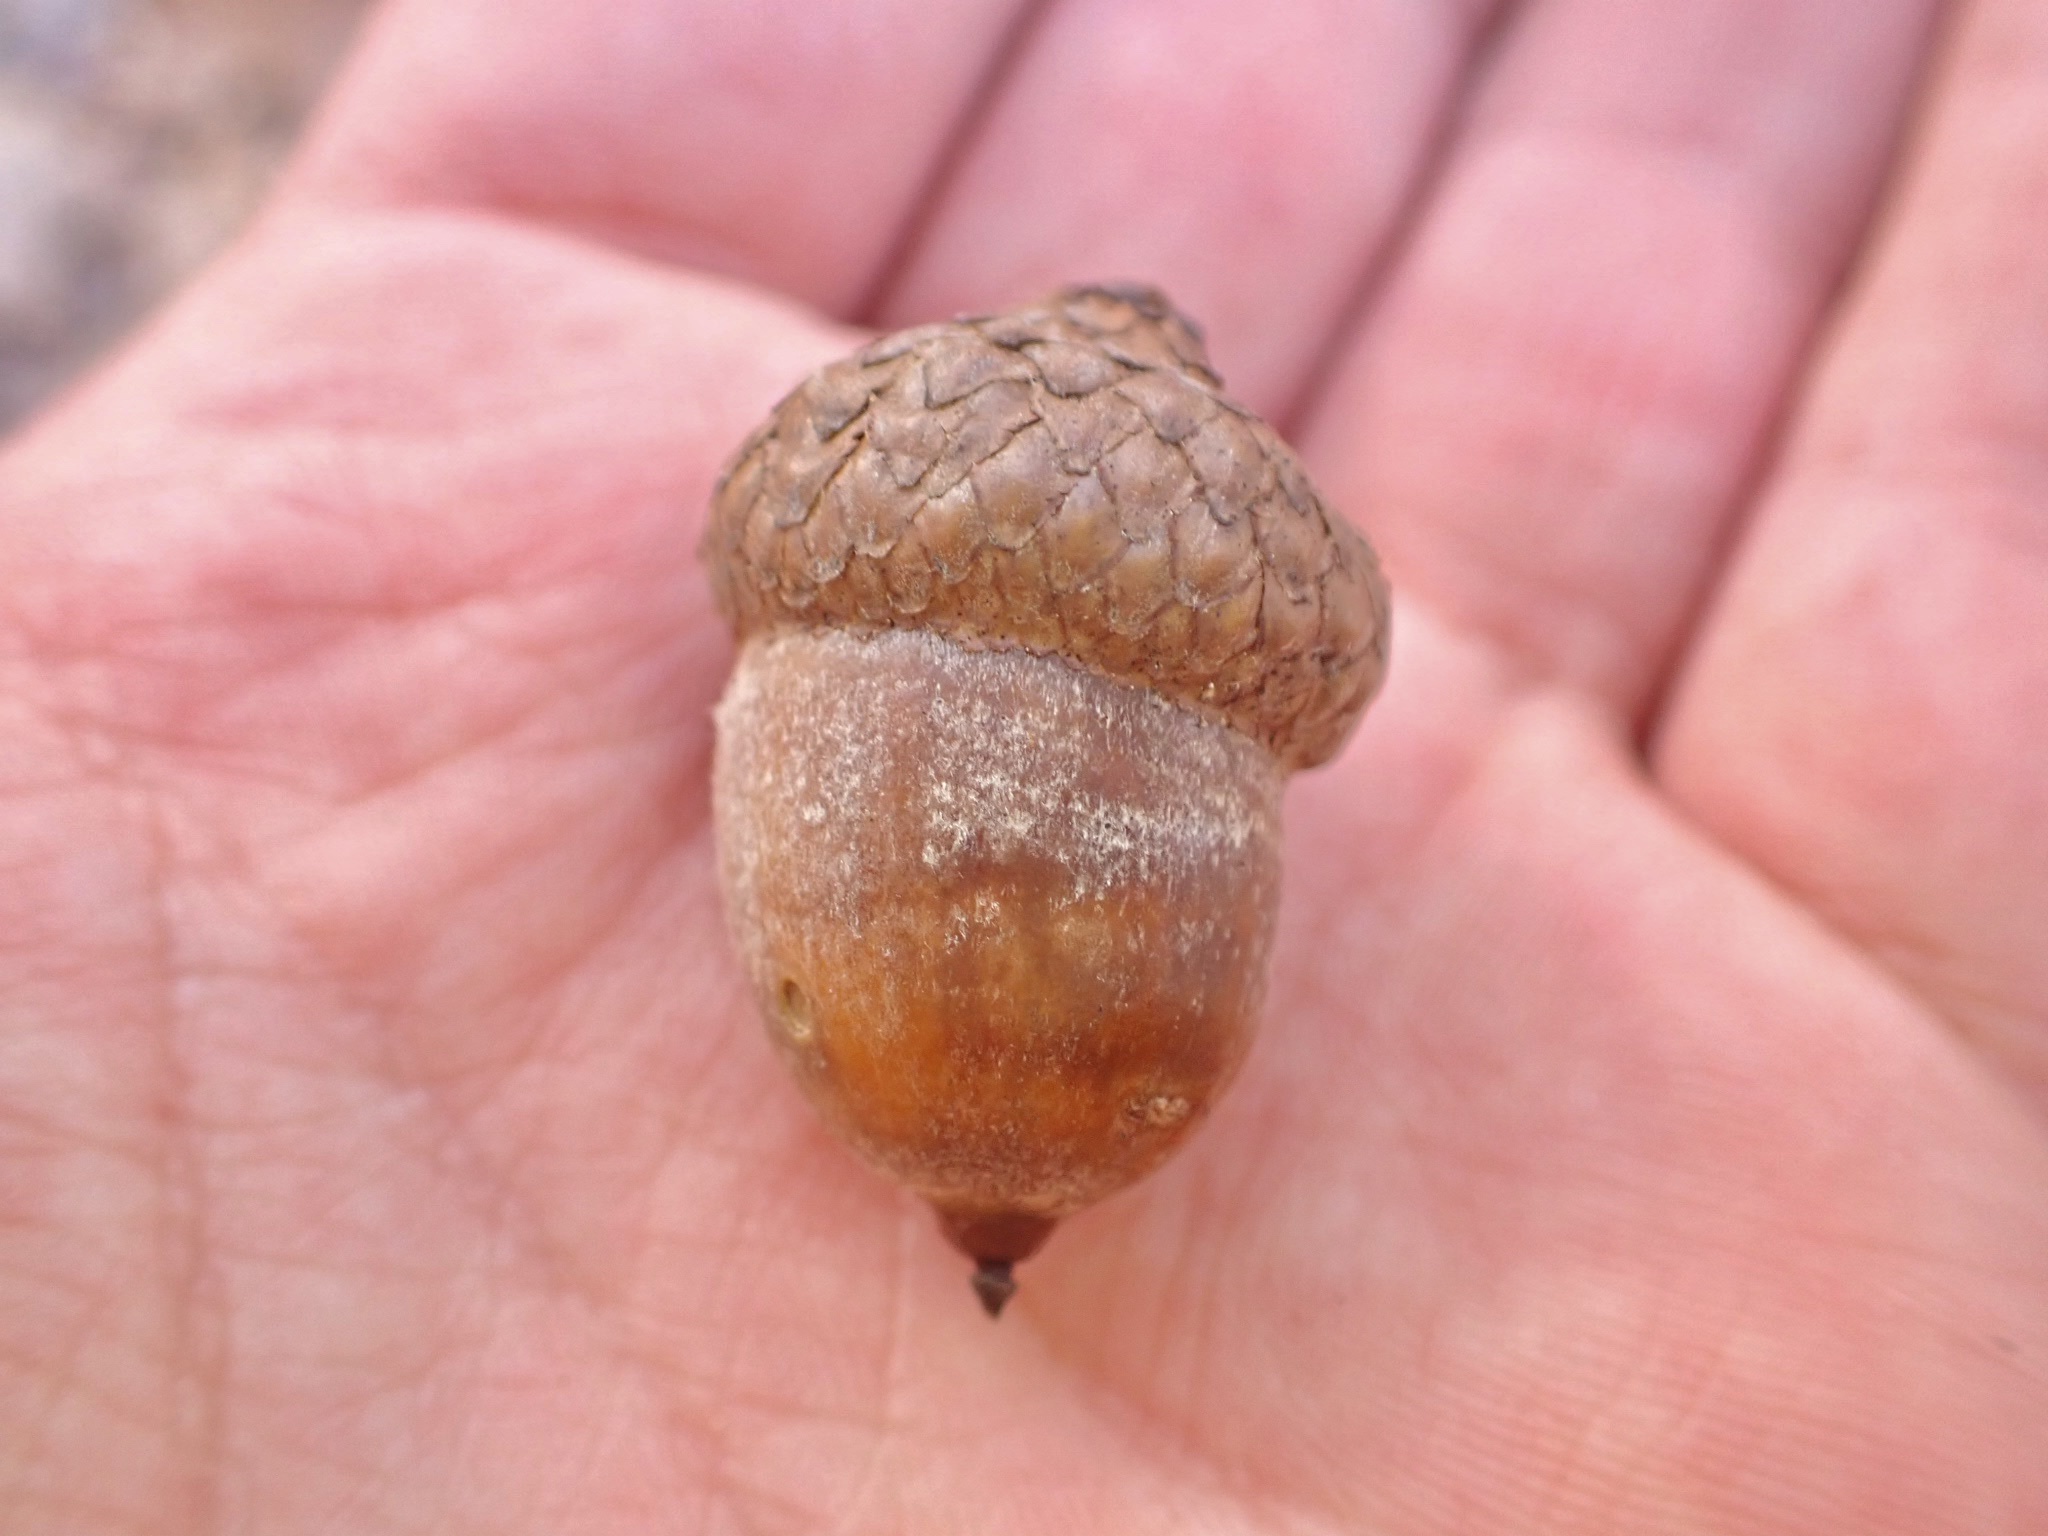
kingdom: Plantae
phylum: Tracheophyta
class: Magnoliopsida
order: Fagales
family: Fagaceae
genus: Quercus
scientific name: Quercus coccinea
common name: Scarlet oak
